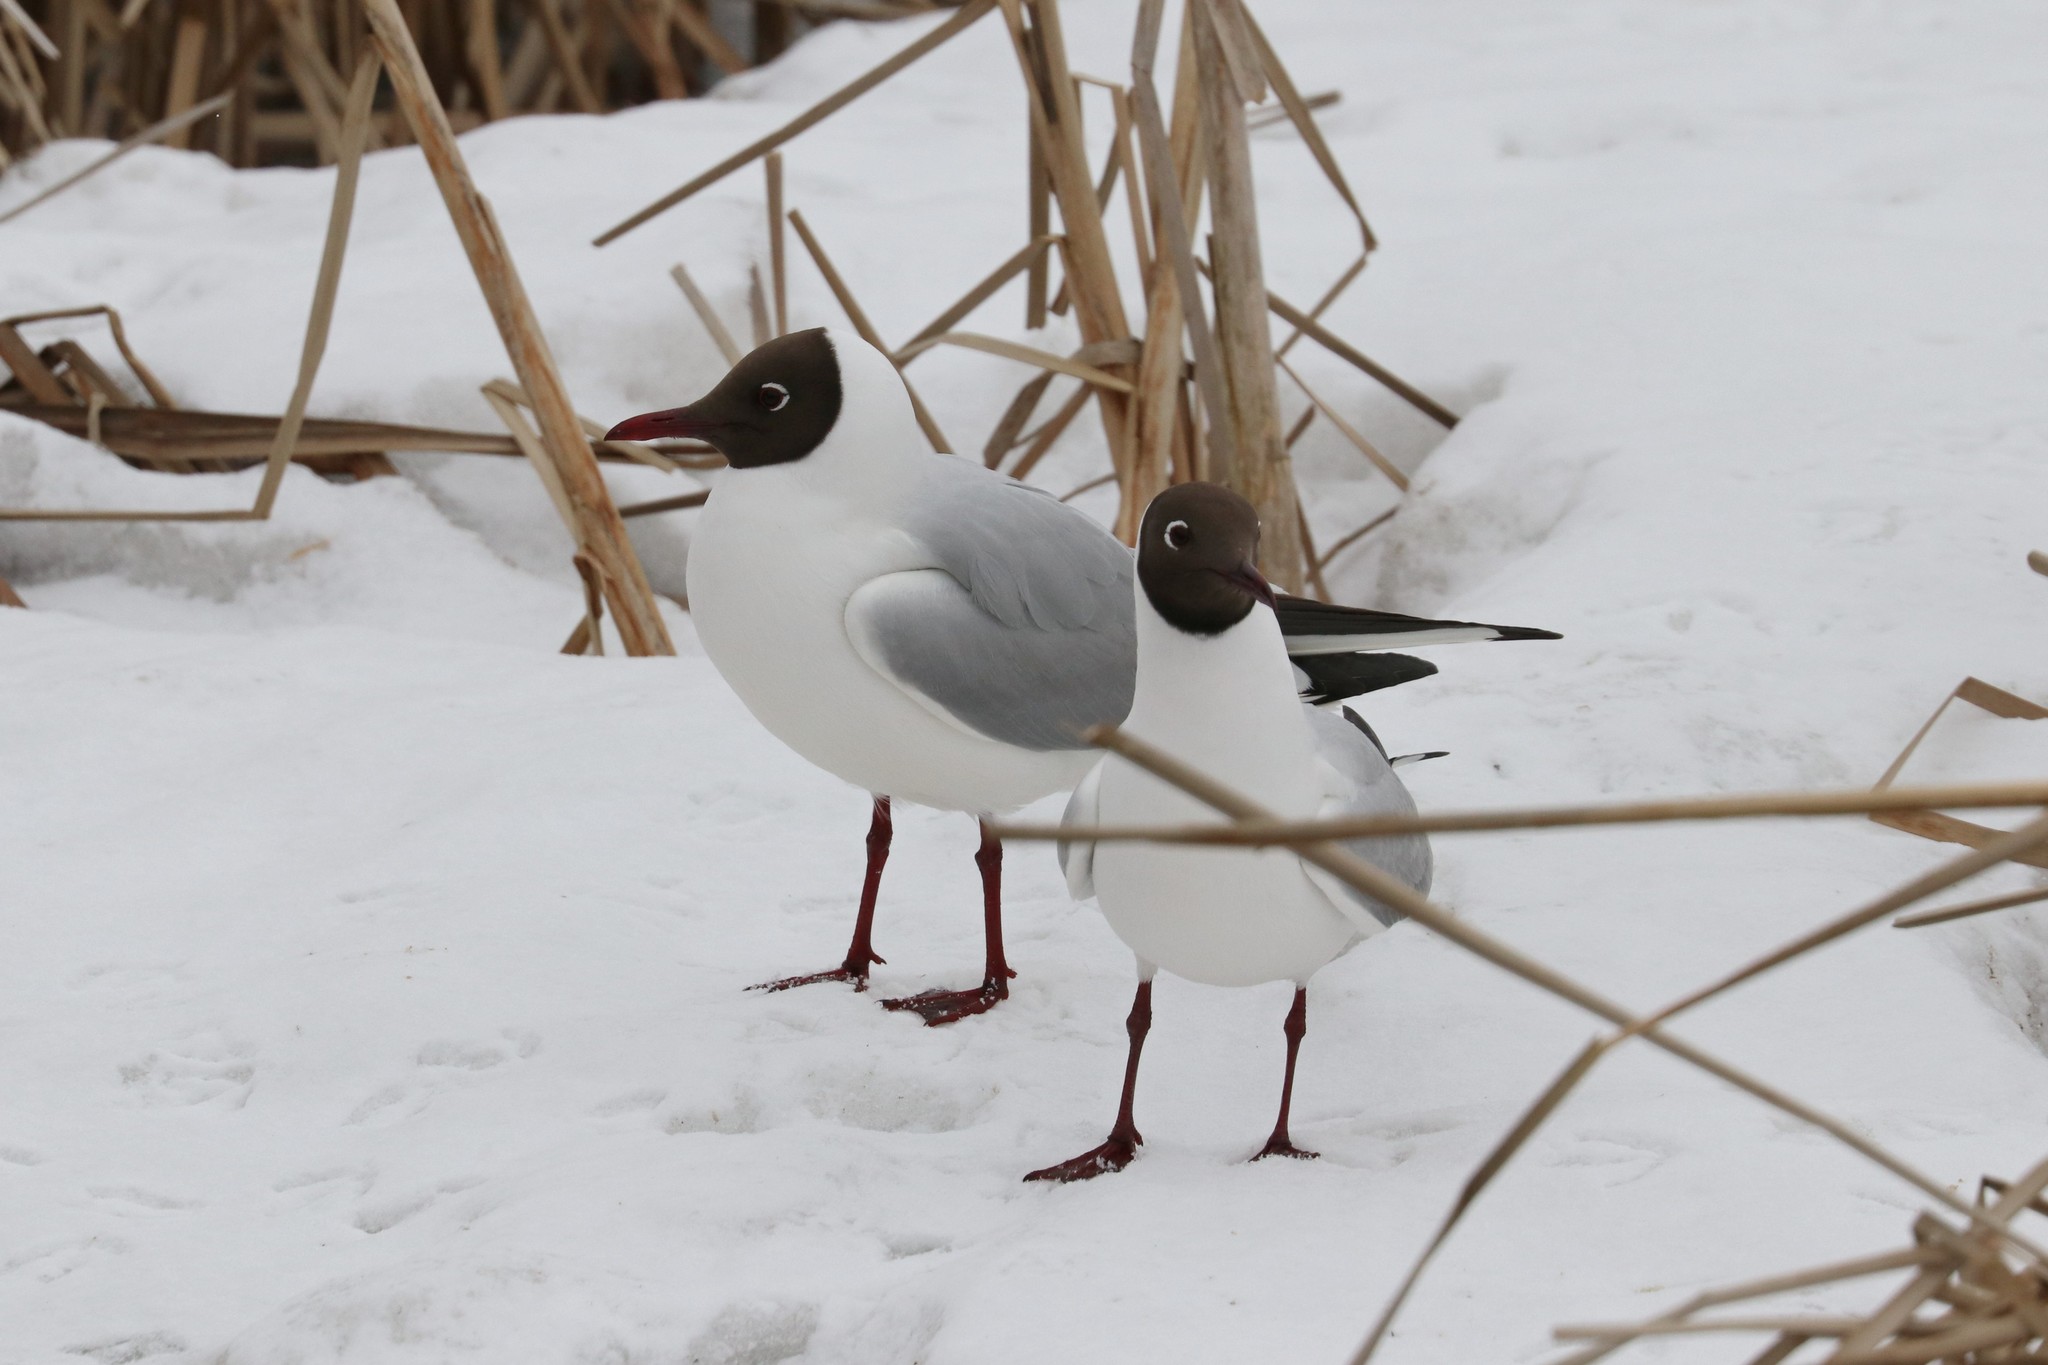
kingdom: Animalia
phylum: Chordata
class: Aves
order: Charadriiformes
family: Laridae
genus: Chroicocephalus
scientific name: Chroicocephalus ridibundus
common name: Black-headed gull
